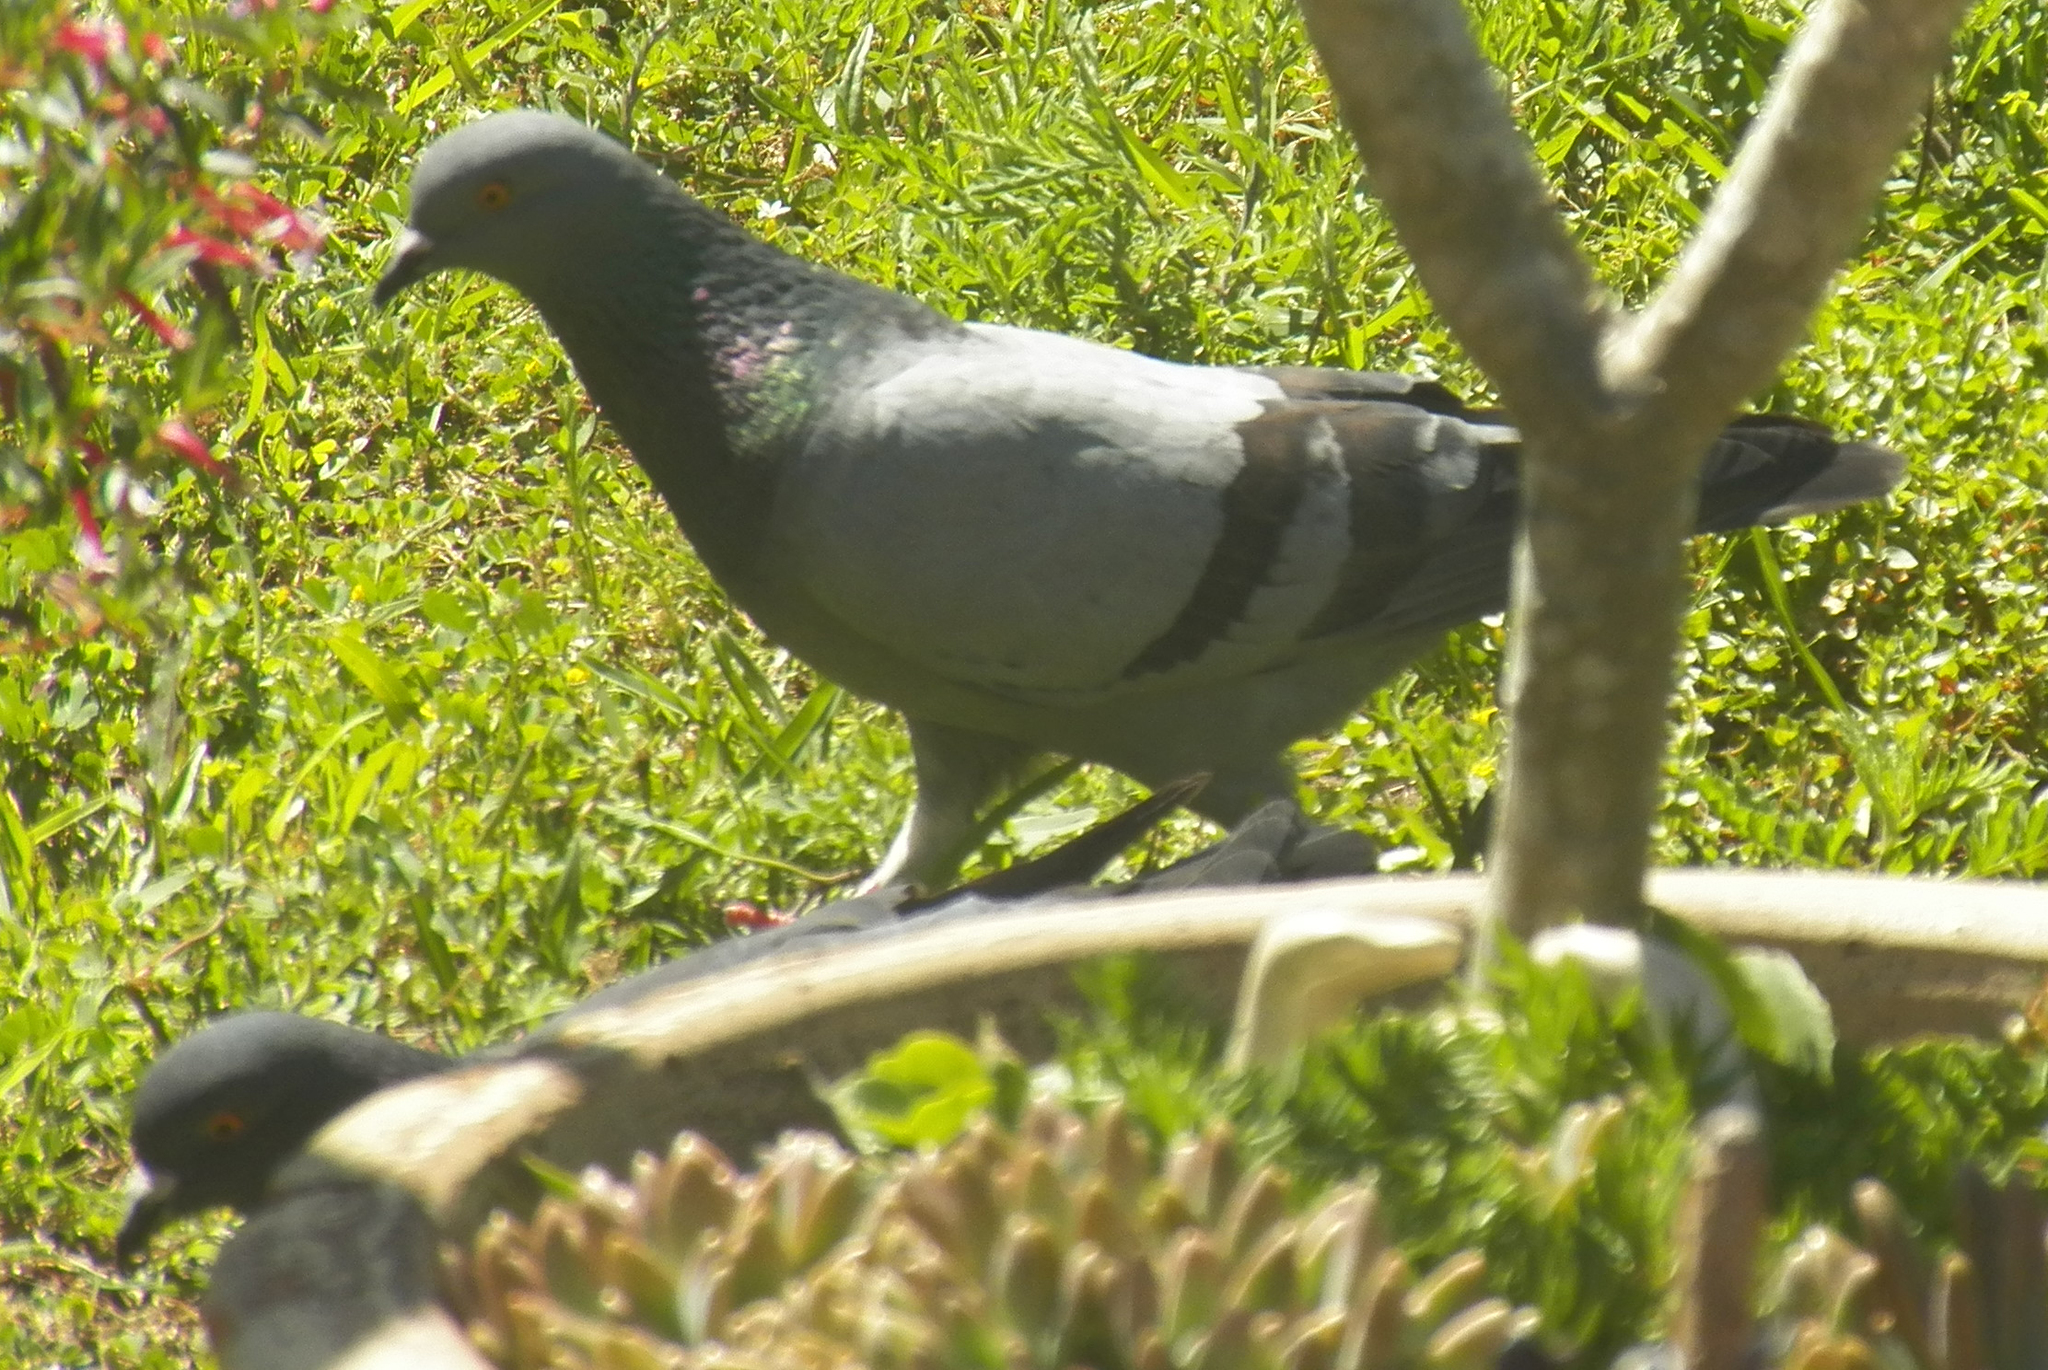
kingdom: Animalia
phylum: Chordata
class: Aves
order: Columbiformes
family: Columbidae
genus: Columba
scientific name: Columba livia
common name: Rock pigeon
